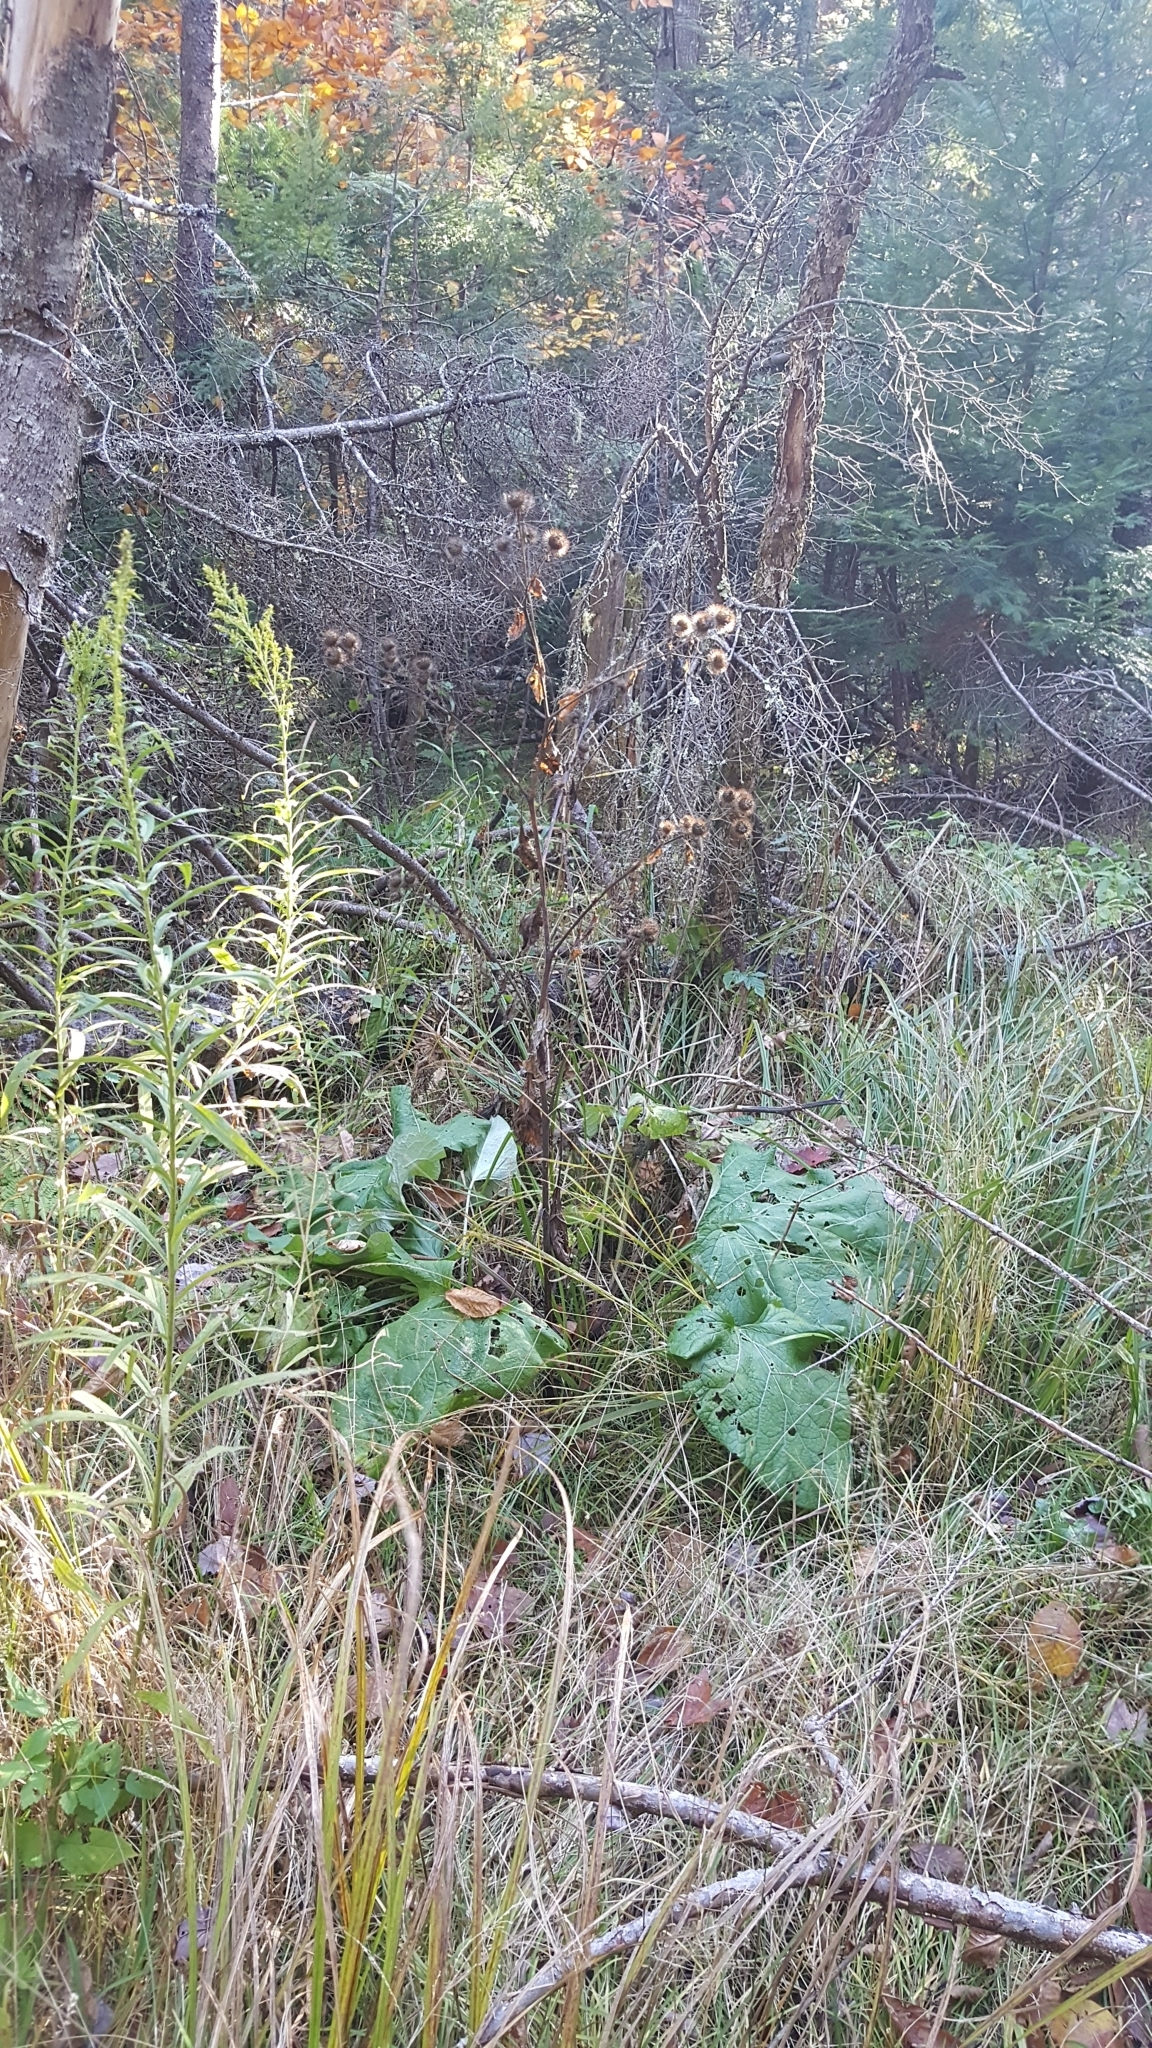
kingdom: Plantae
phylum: Tracheophyta
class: Magnoliopsida
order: Asterales
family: Asteraceae
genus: Arctium
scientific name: Arctium lappa
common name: Greater burdock
